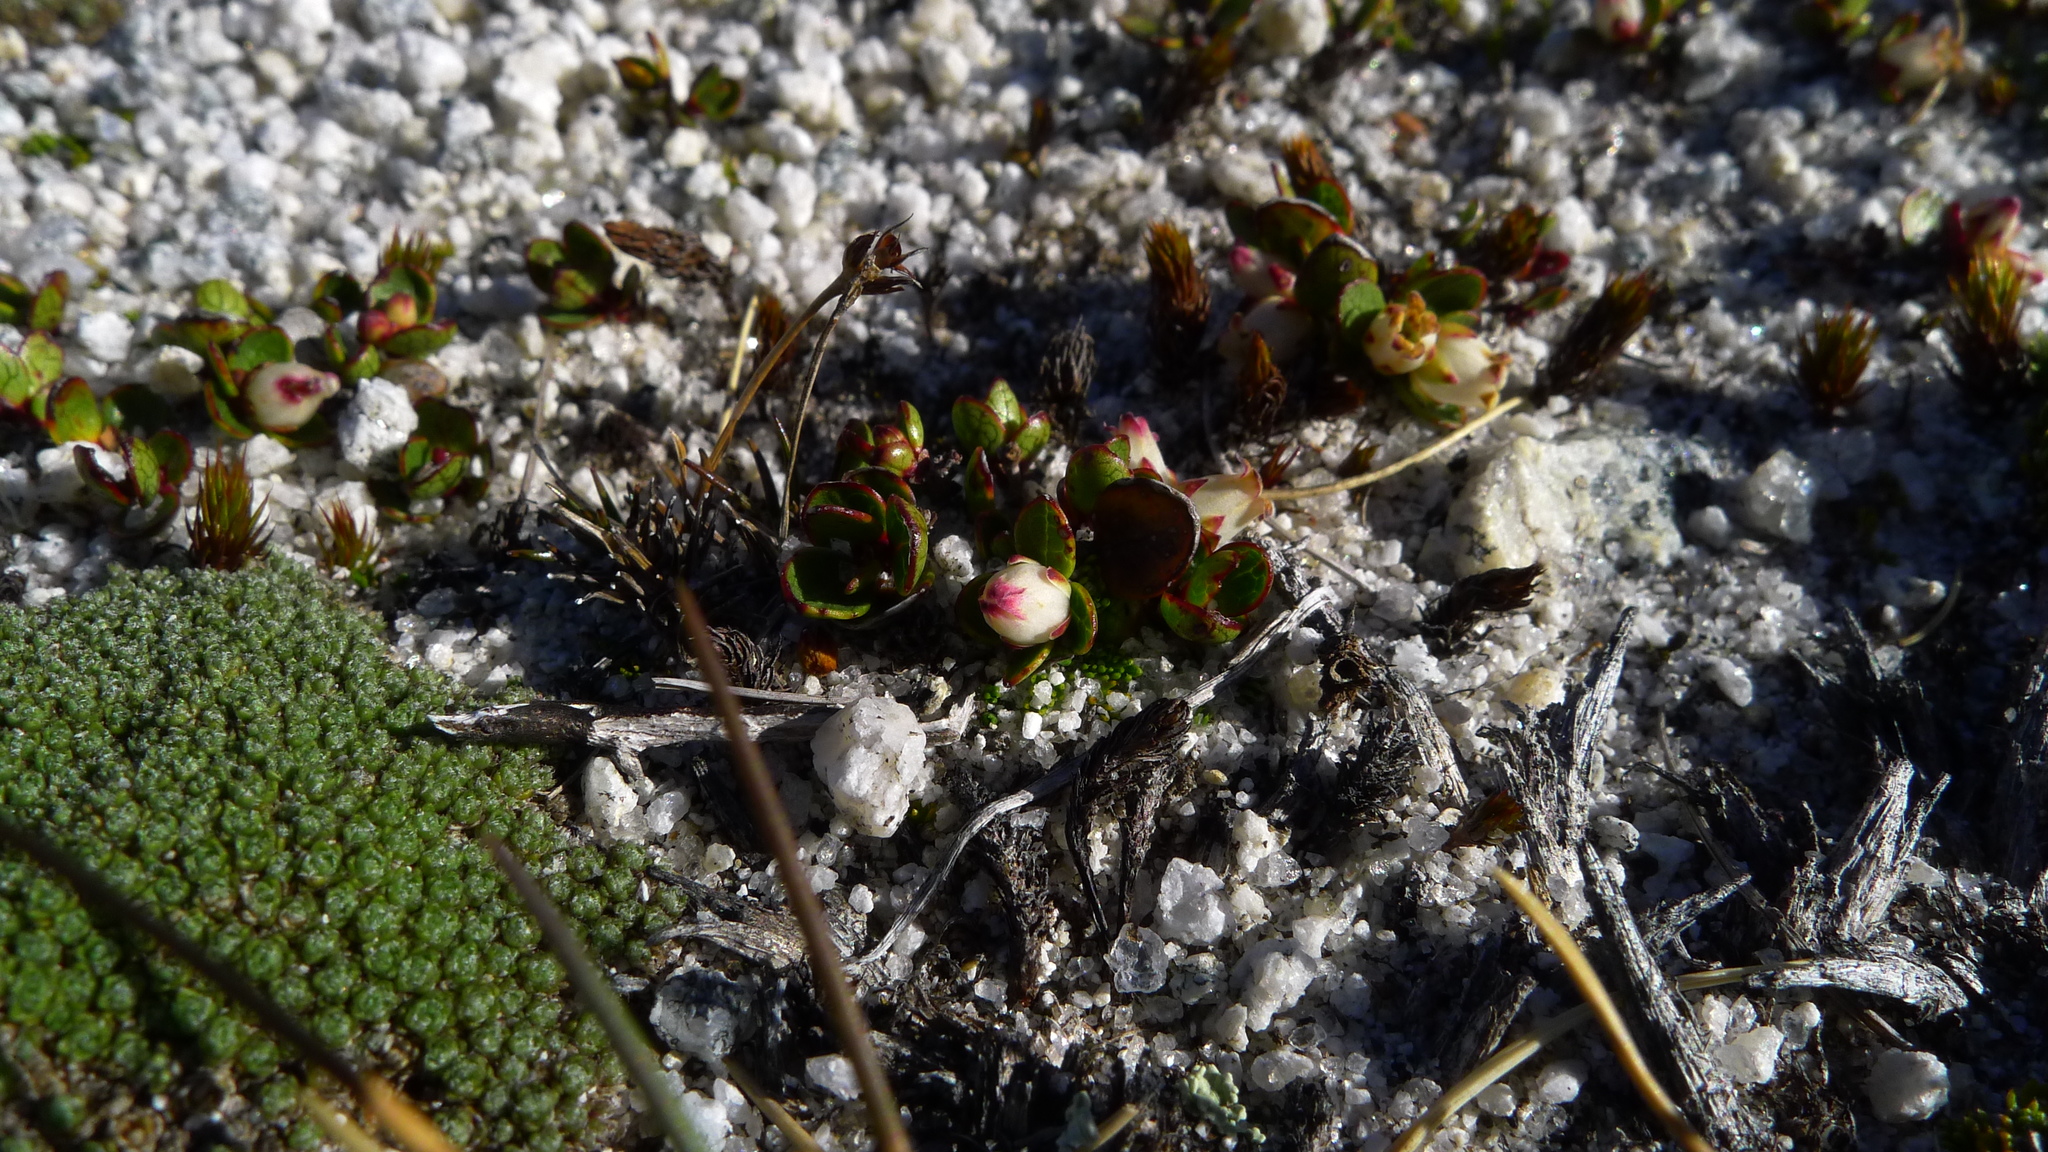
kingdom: Plantae
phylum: Tracheophyta
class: Magnoliopsida
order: Ericales
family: Ericaceae
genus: Gaultheria
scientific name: Gaultheria nubicola
